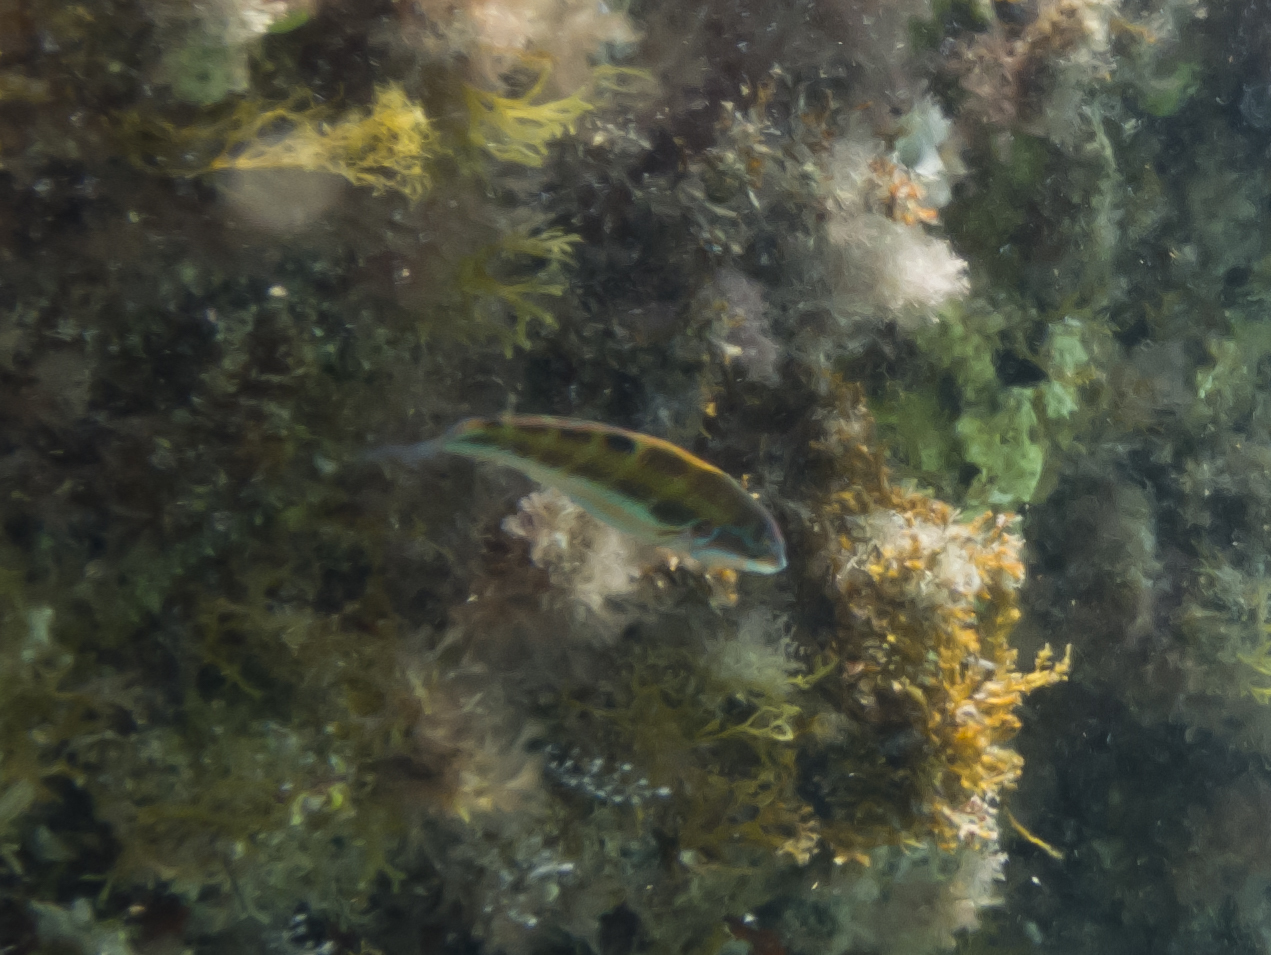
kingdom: Animalia
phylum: Chordata
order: Perciformes
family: Labridae
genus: Thalassoma
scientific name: Thalassoma pavo
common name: Ornate wrasse
